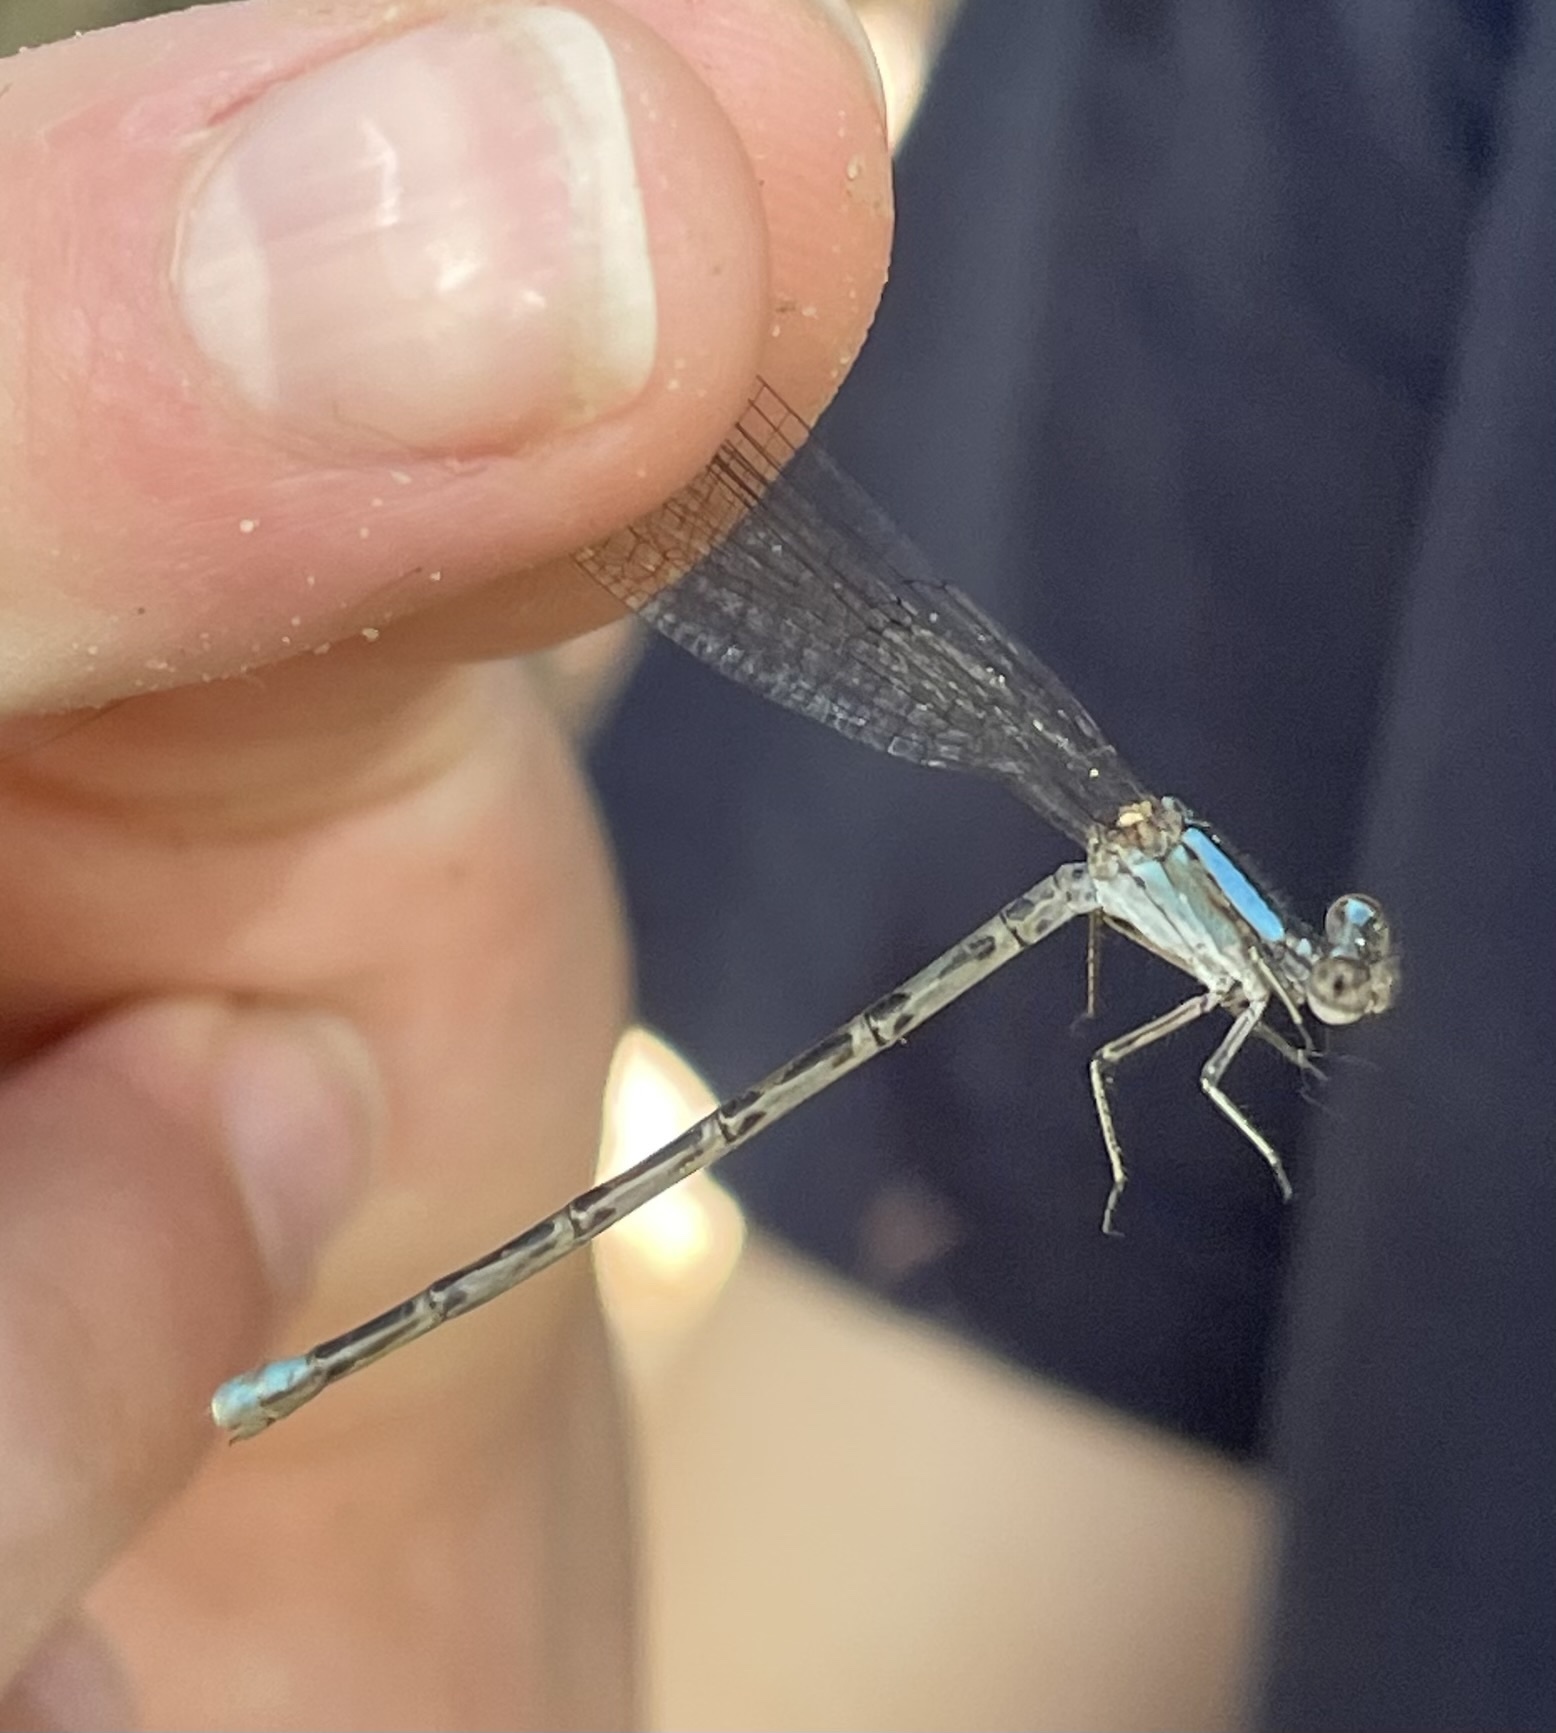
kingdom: Animalia
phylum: Arthropoda
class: Insecta
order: Odonata
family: Coenagrionidae
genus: Argia
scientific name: Argia immunda
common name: Kiowa dancer
